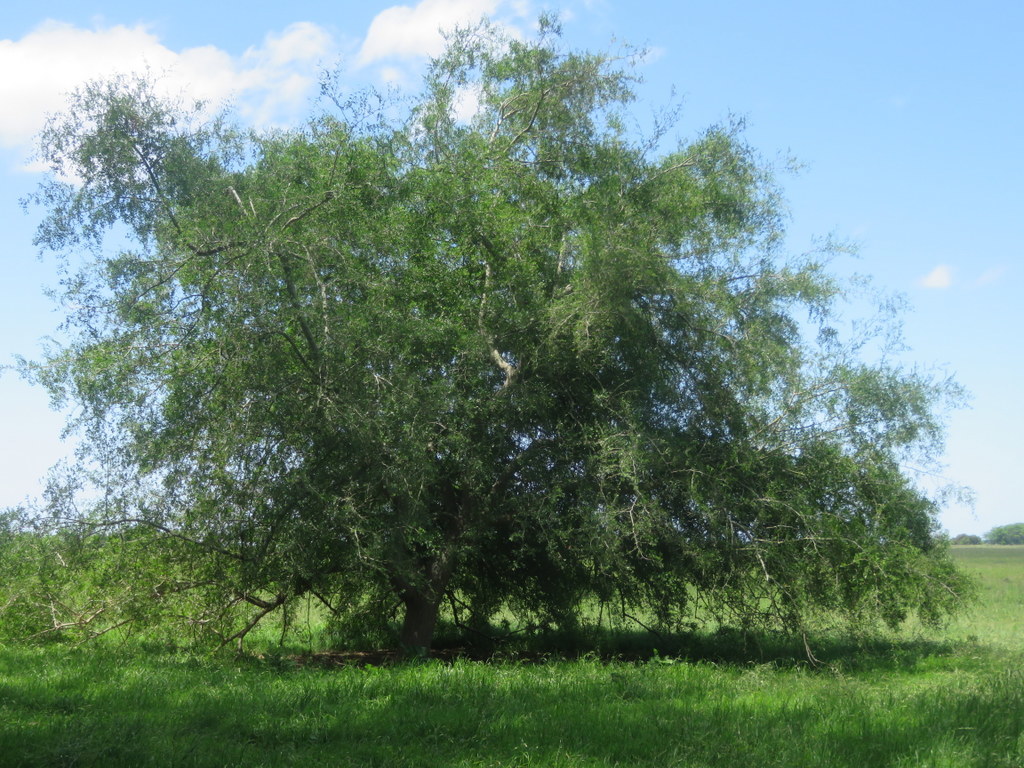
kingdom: Plantae
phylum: Tracheophyta
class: Magnoliopsida
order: Rosales
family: Cannabaceae
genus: Celtis
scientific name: Celtis tala
